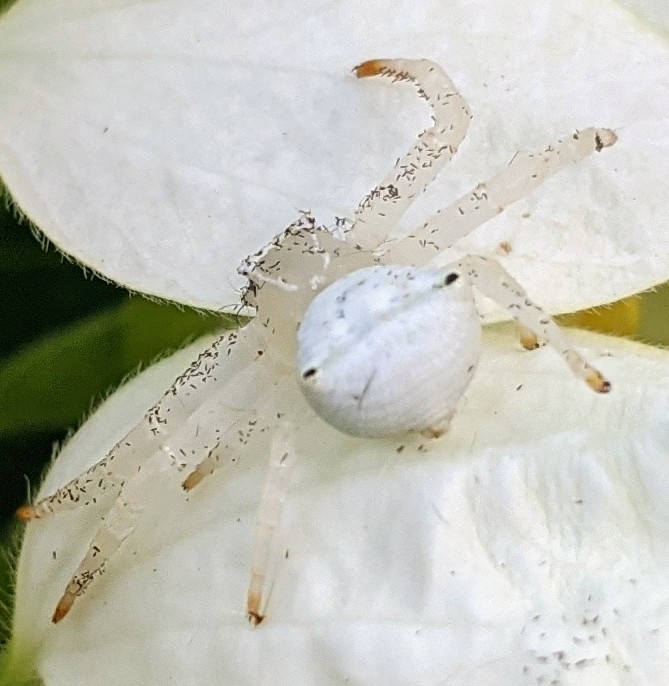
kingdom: Animalia
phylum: Arthropoda
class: Arachnida
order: Araneae
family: Thomisidae
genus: Thomisus
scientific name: Thomisus spectabilis
